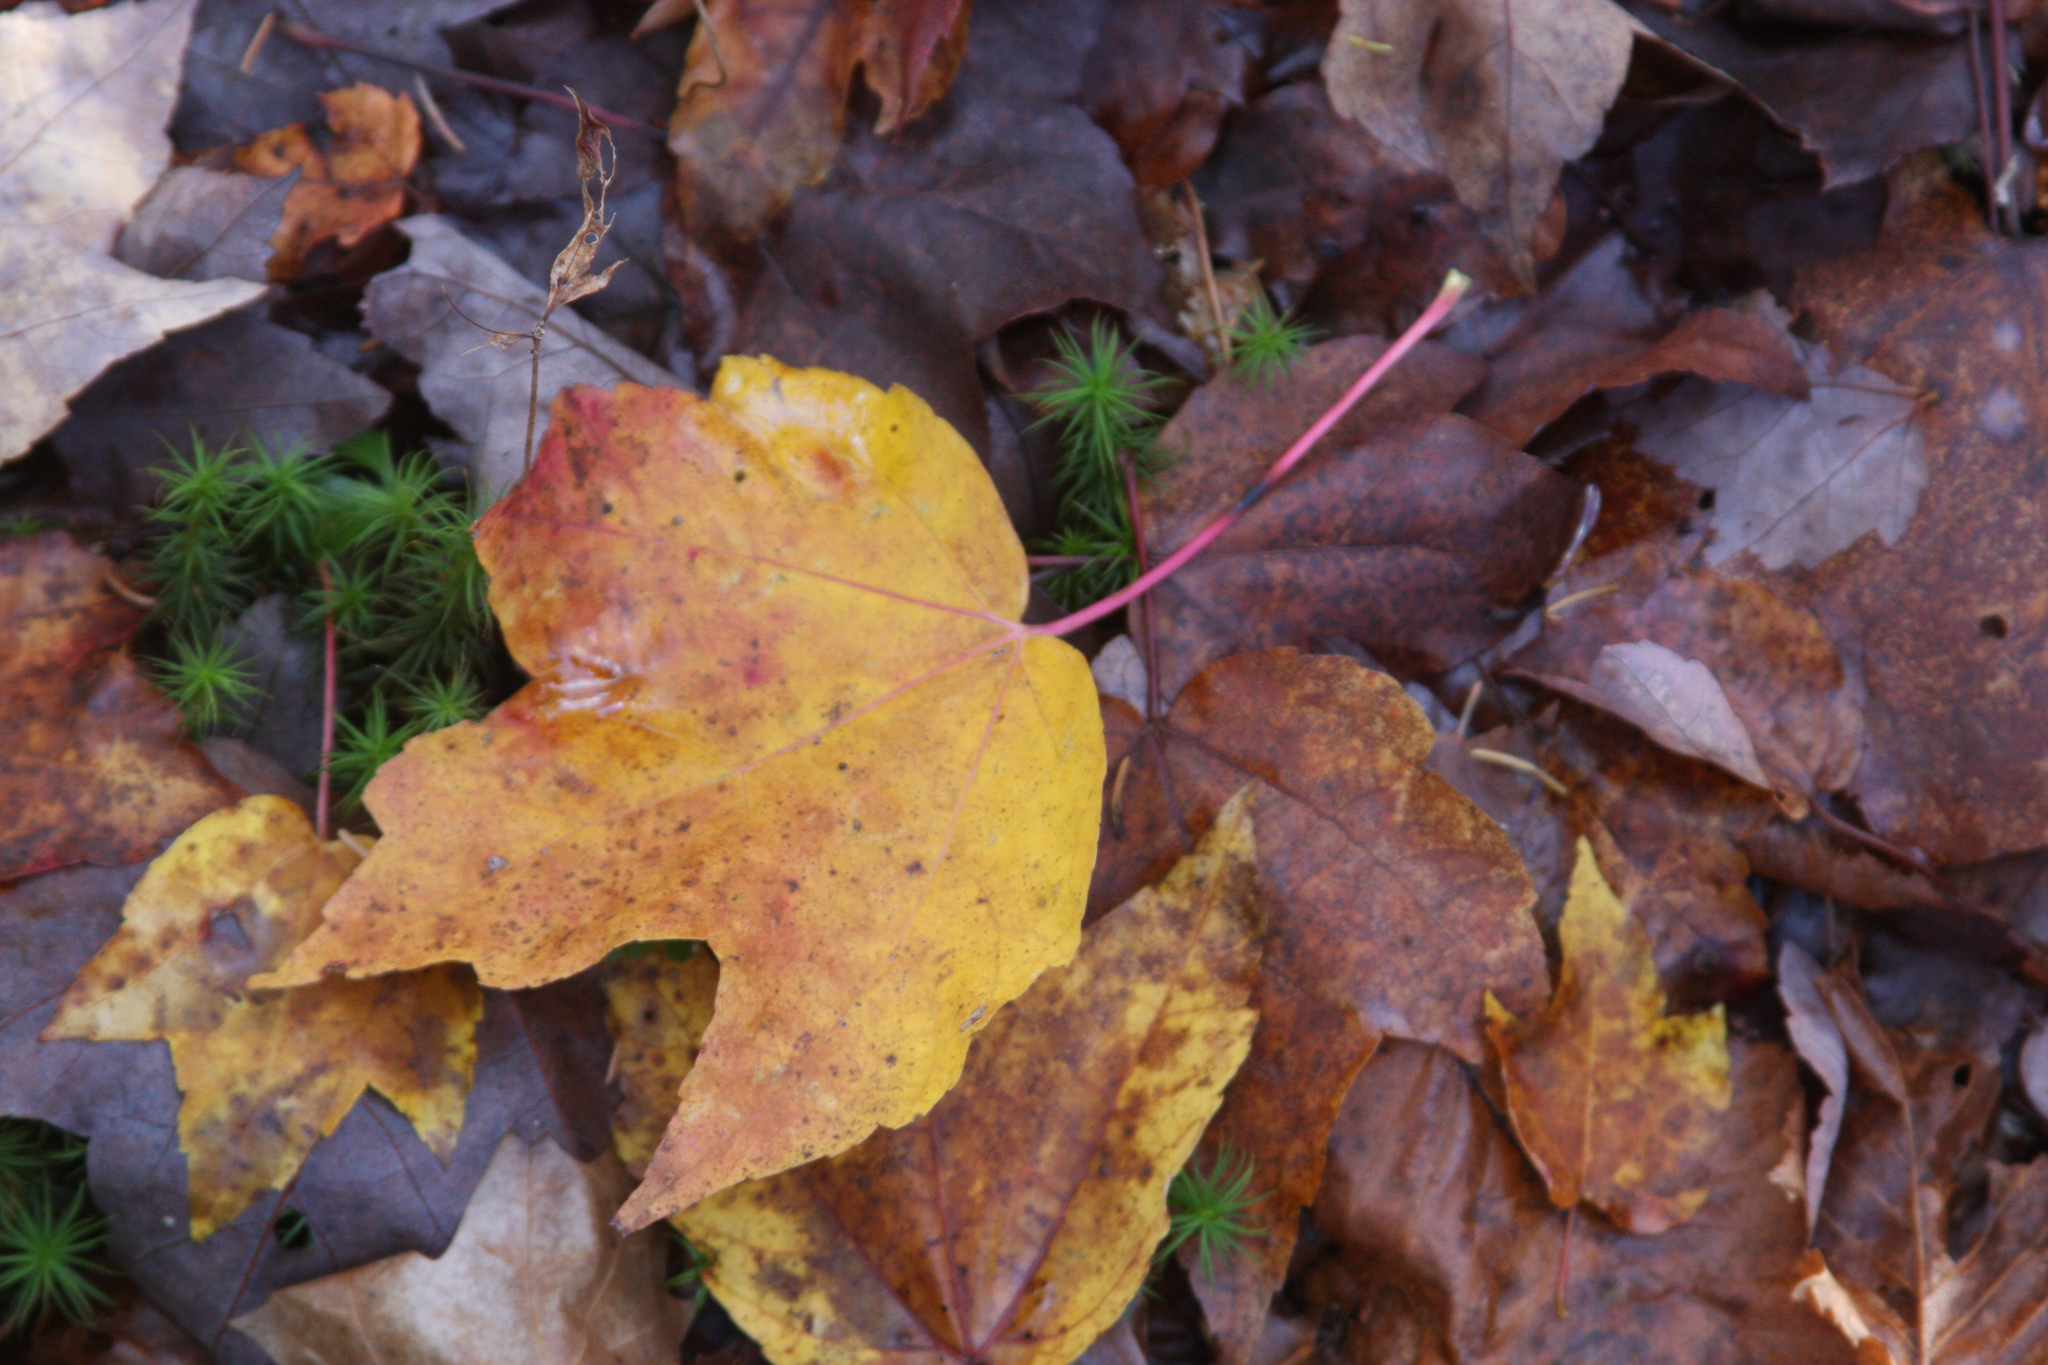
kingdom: Plantae
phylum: Tracheophyta
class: Magnoliopsida
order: Sapindales
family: Sapindaceae
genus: Acer
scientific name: Acer rubrum
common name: Red maple
